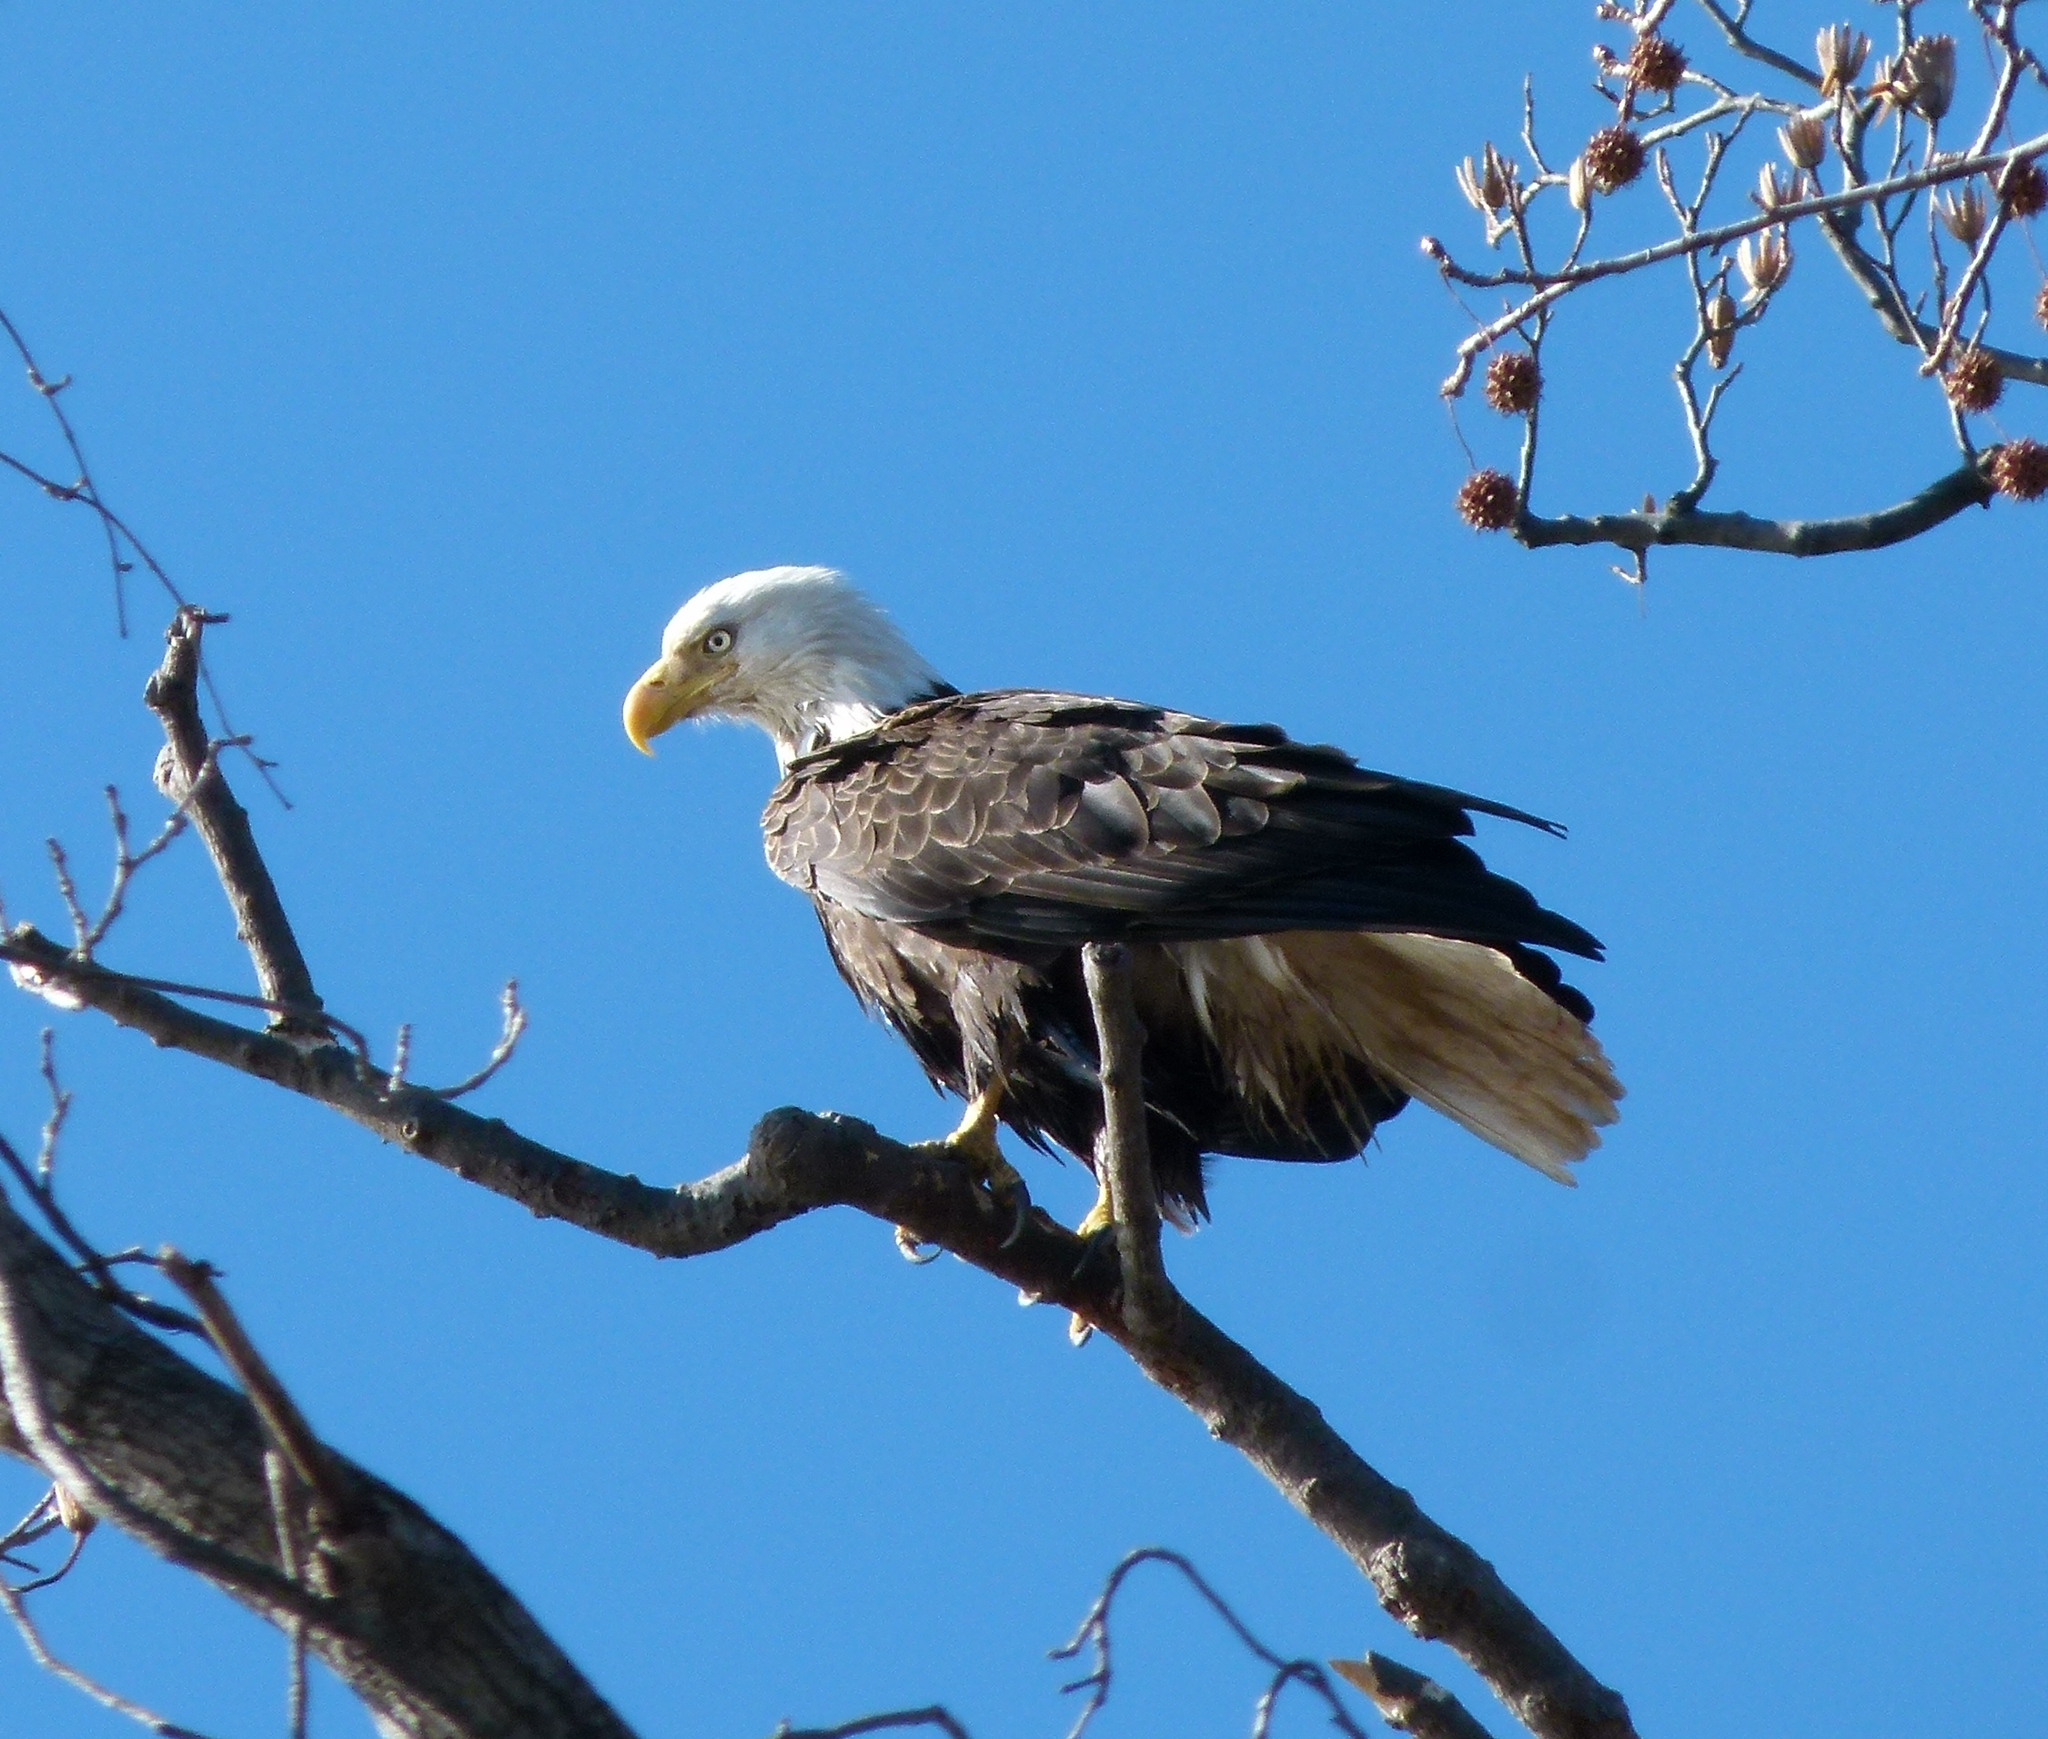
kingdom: Animalia
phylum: Chordata
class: Aves
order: Accipitriformes
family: Accipitridae
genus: Haliaeetus
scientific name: Haliaeetus leucocephalus
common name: Bald eagle
